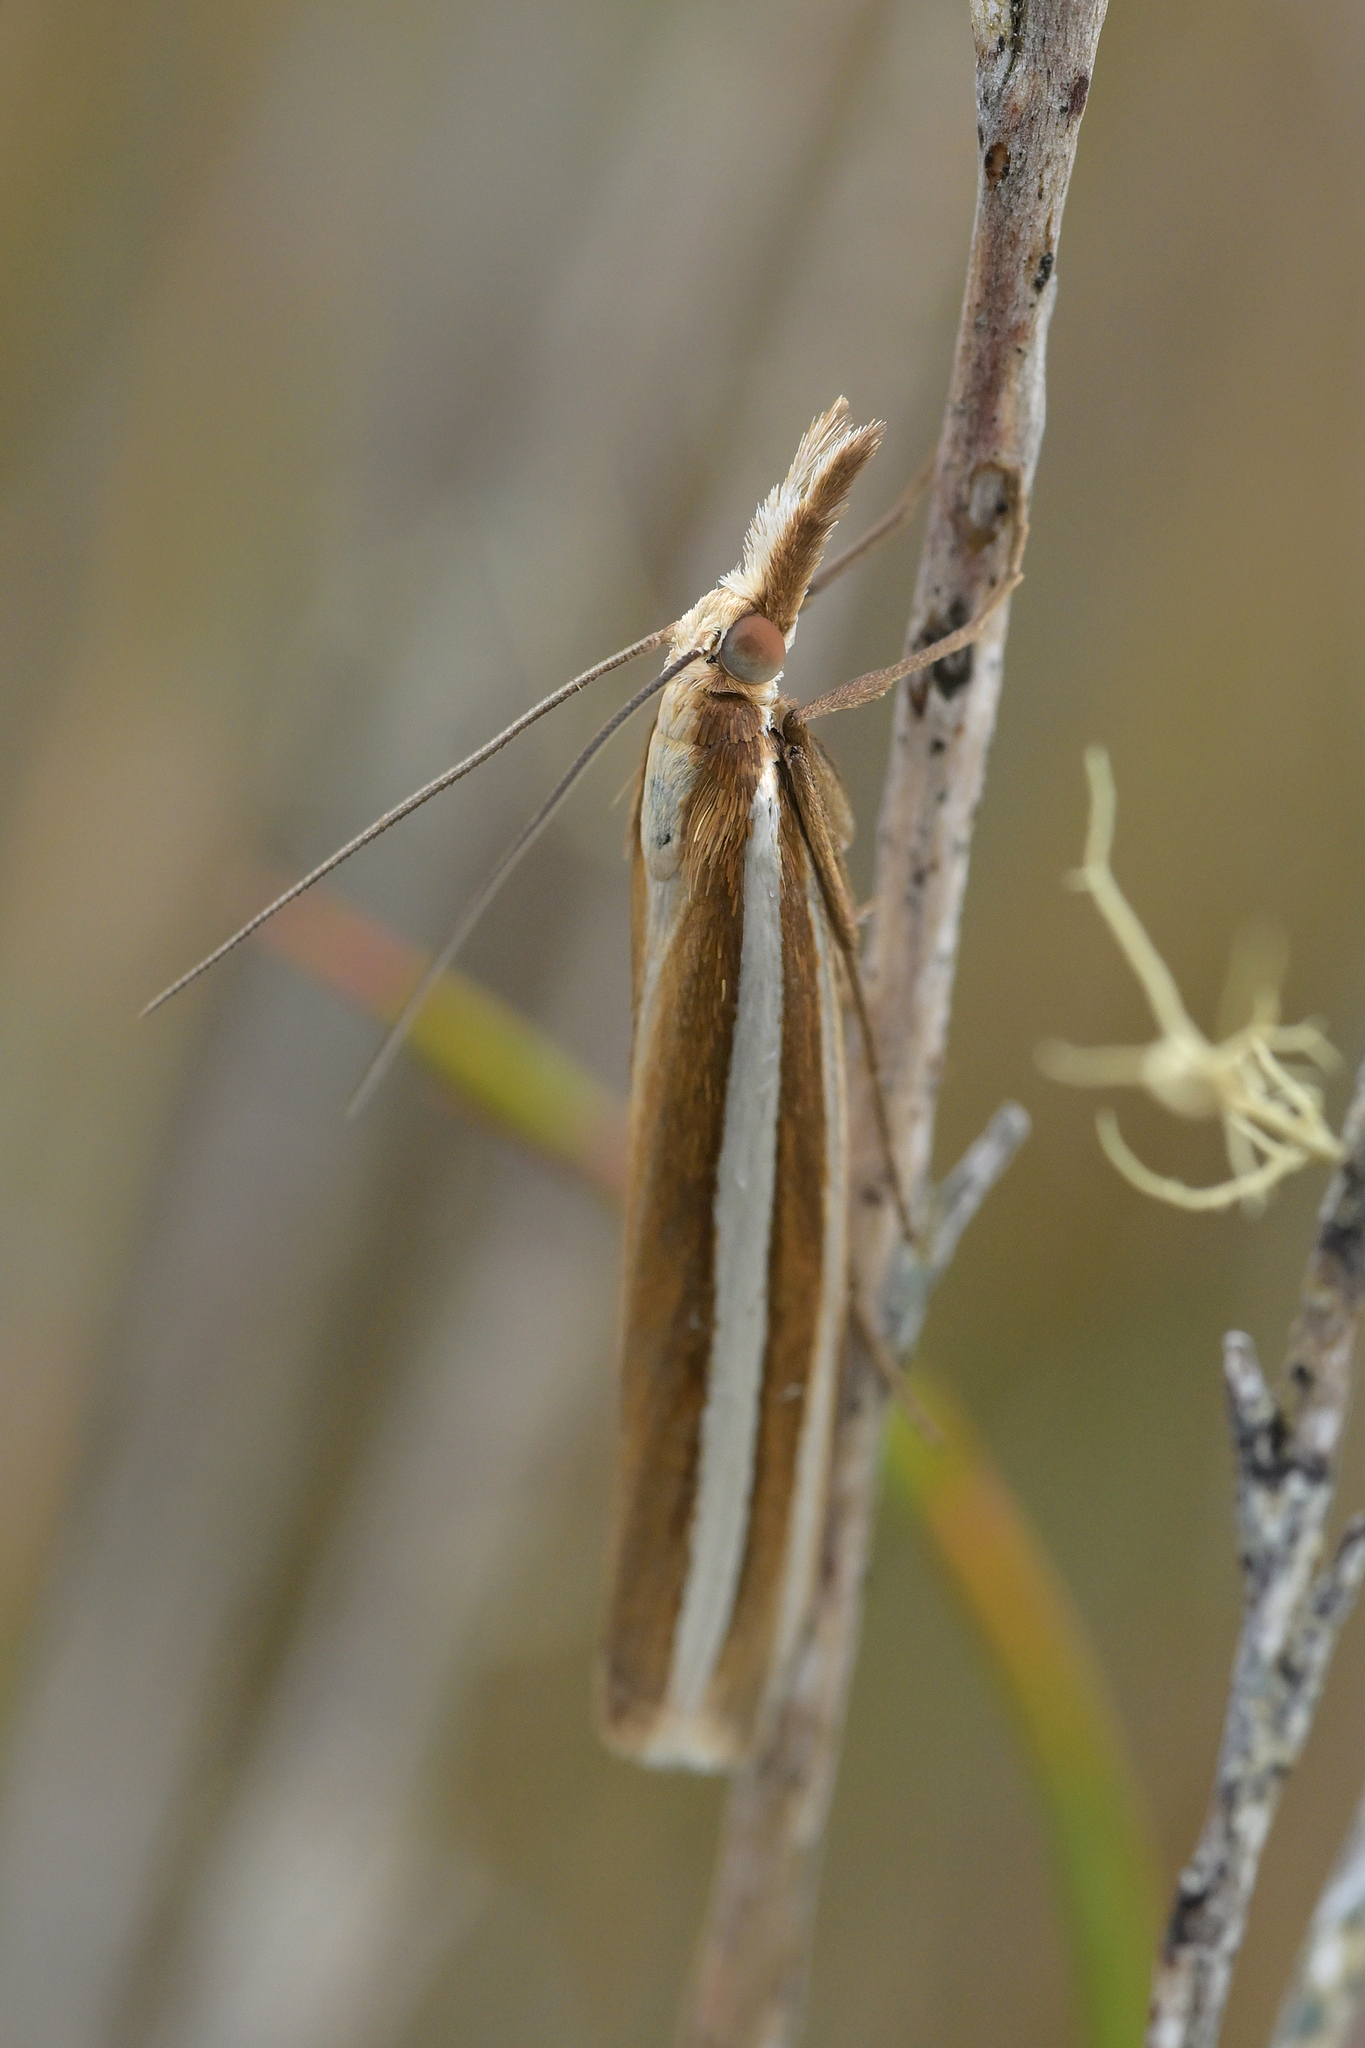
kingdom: Animalia
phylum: Arthropoda
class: Insecta
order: Lepidoptera
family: Crambidae
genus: Orocrambus
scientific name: Orocrambus siriellus
